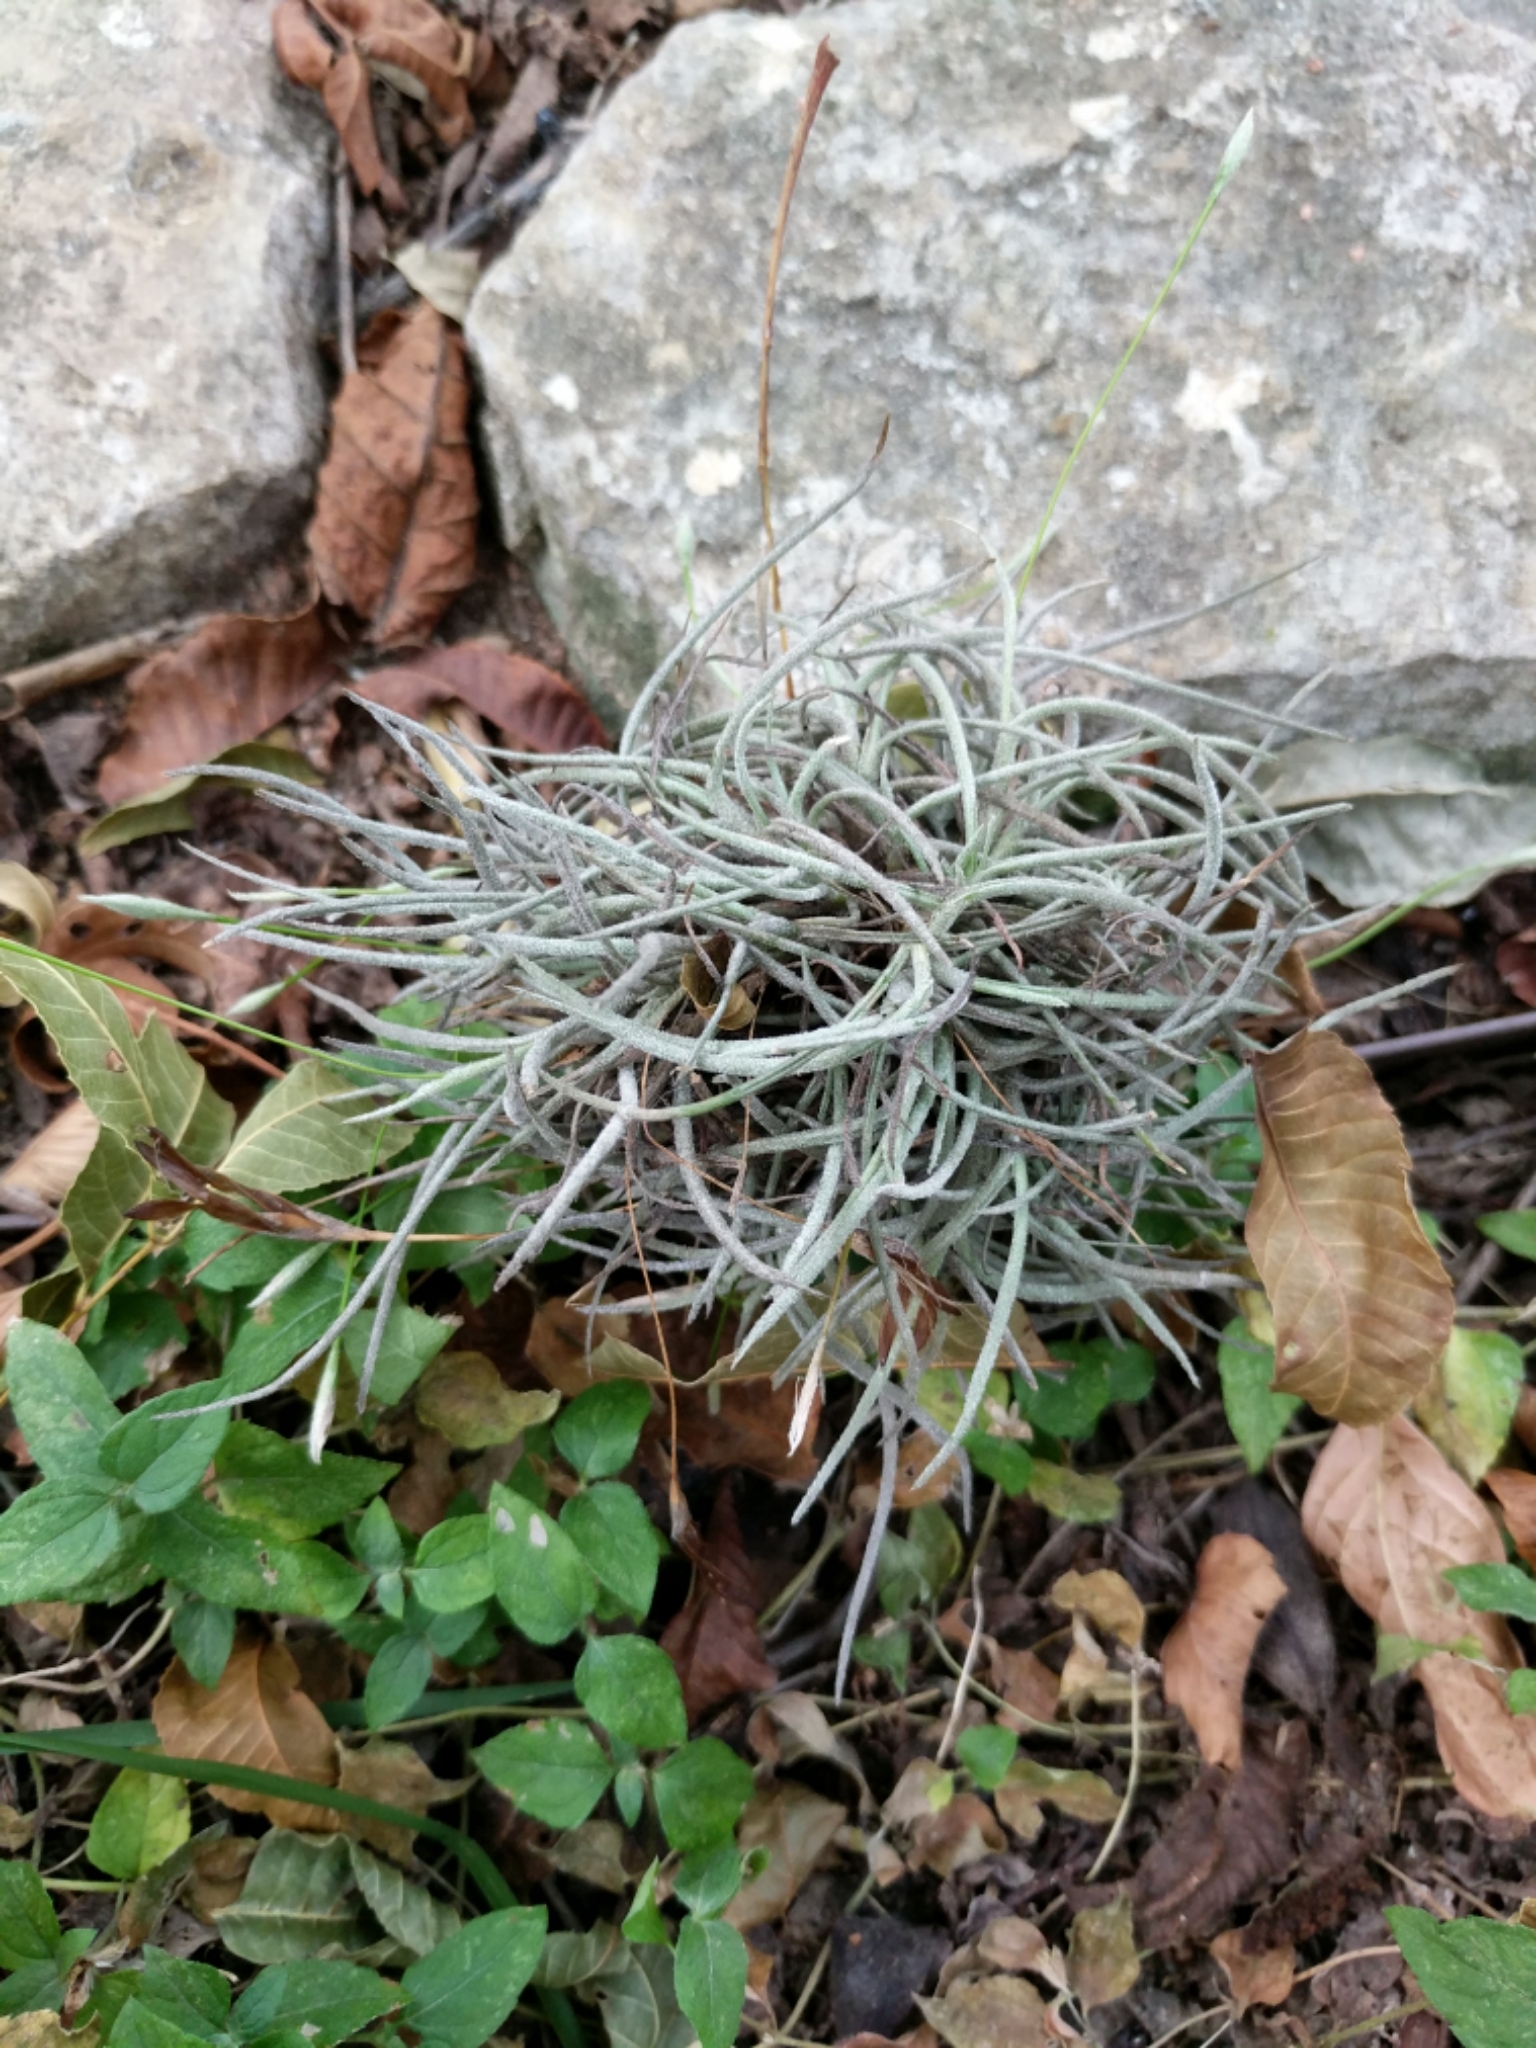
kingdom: Plantae
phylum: Tracheophyta
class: Liliopsida
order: Poales
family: Bromeliaceae
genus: Tillandsia
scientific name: Tillandsia recurvata
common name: Small ballmoss
